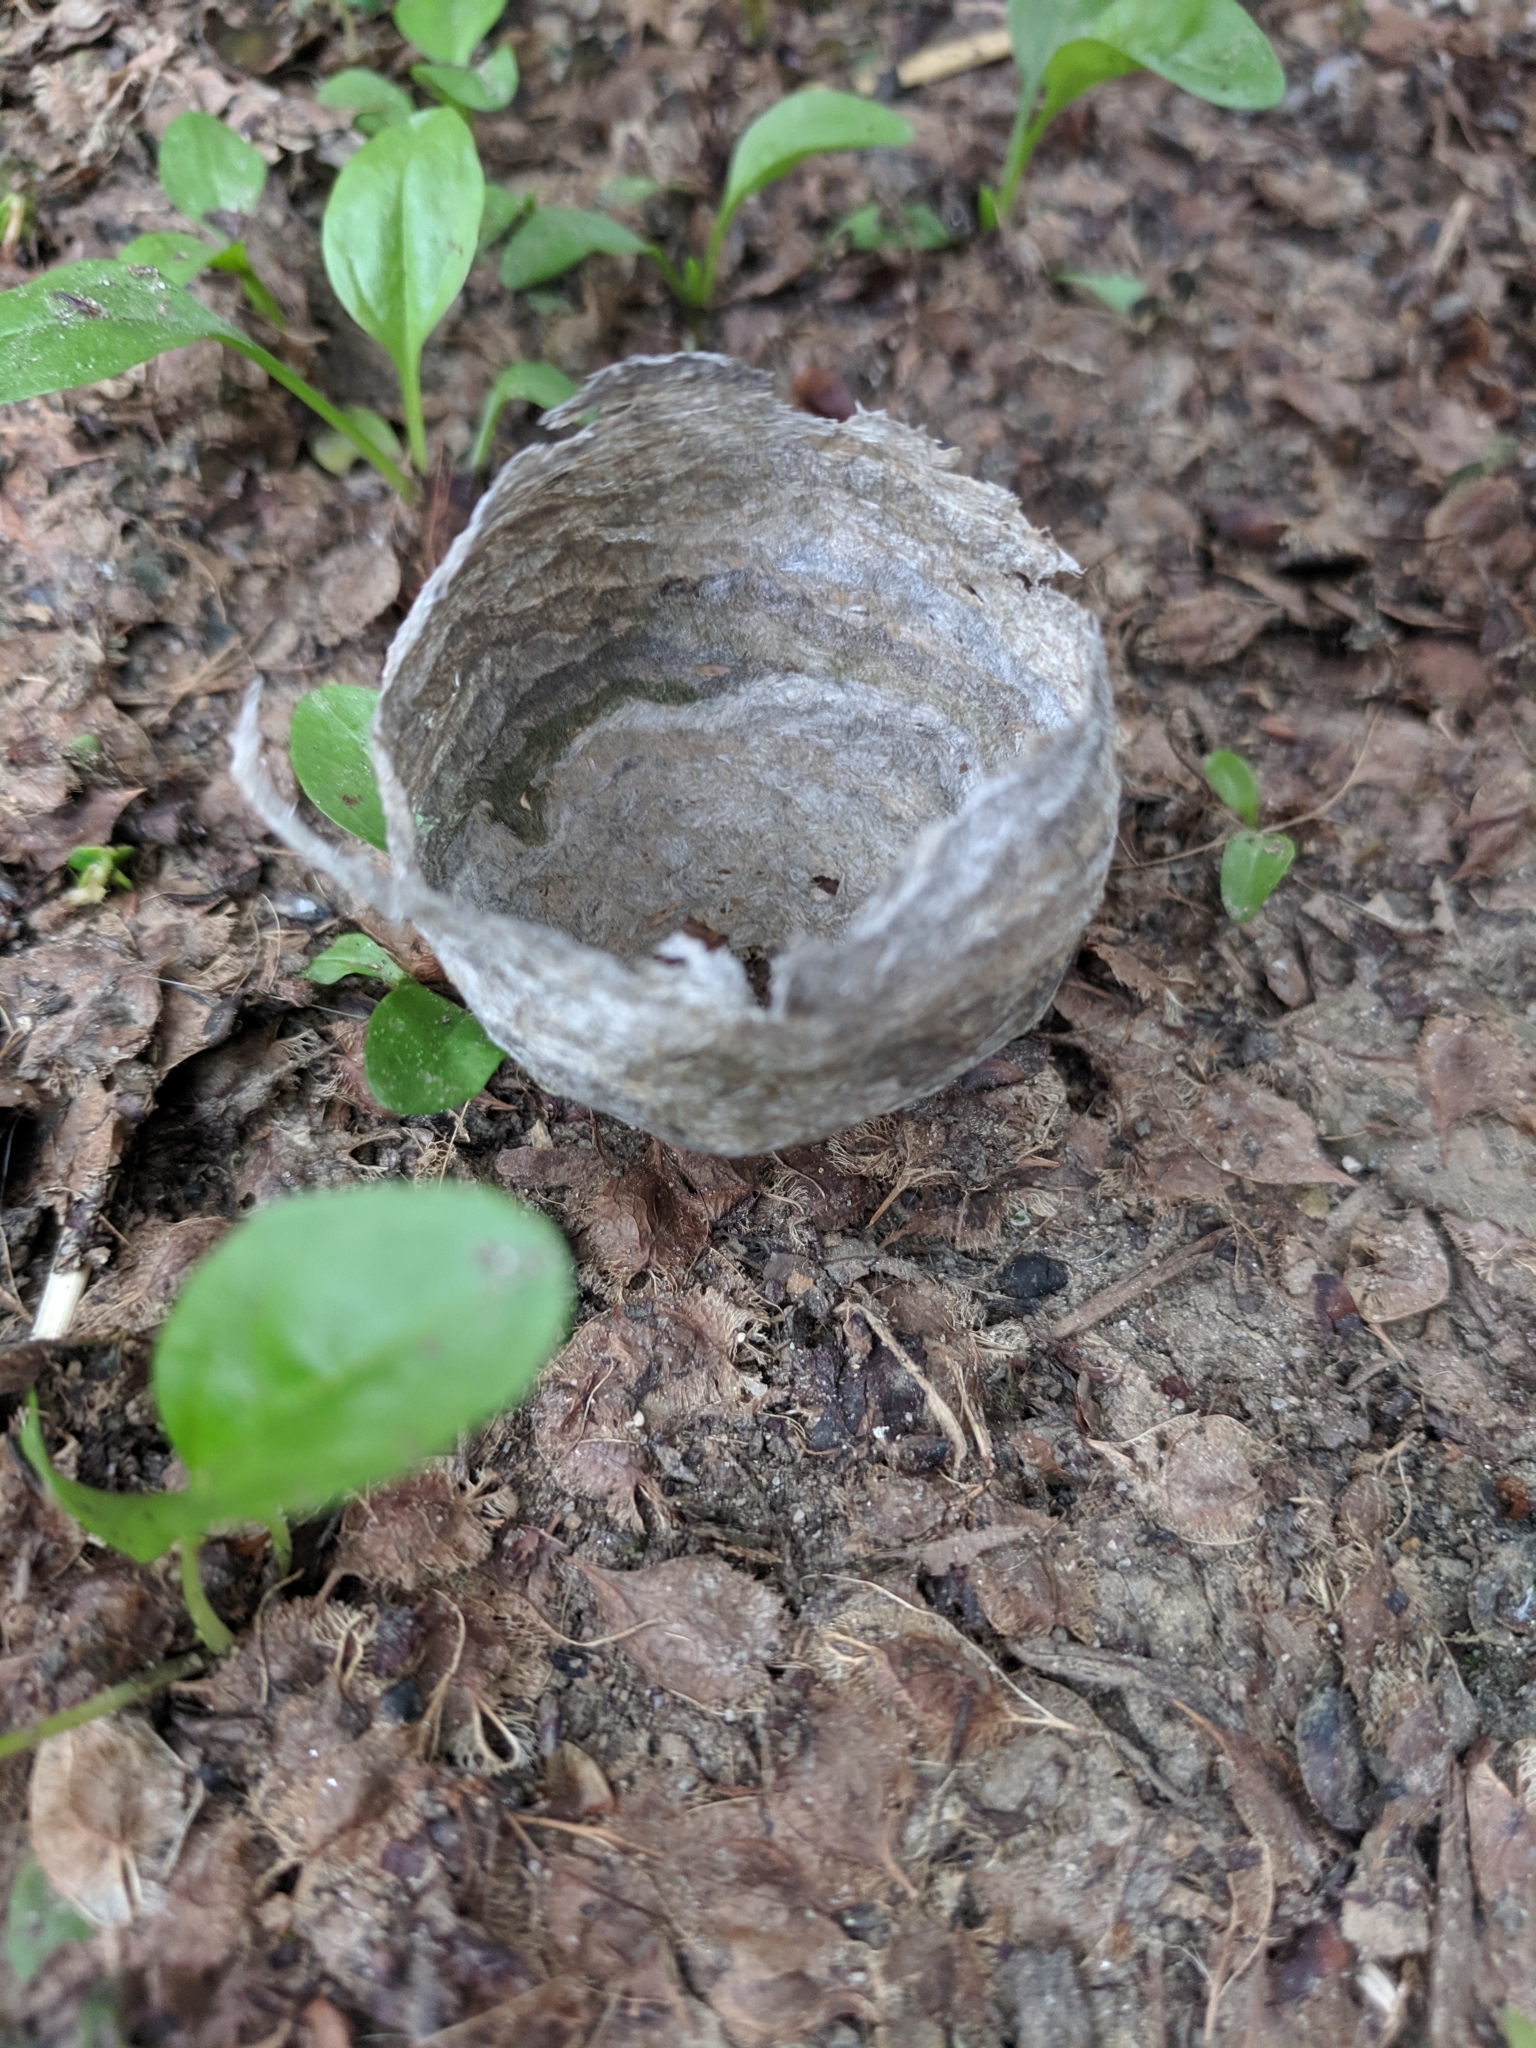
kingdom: Animalia
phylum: Arthropoda
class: Insecta
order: Hymenoptera
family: Vespidae
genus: Dolichovespula
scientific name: Dolichovespula
